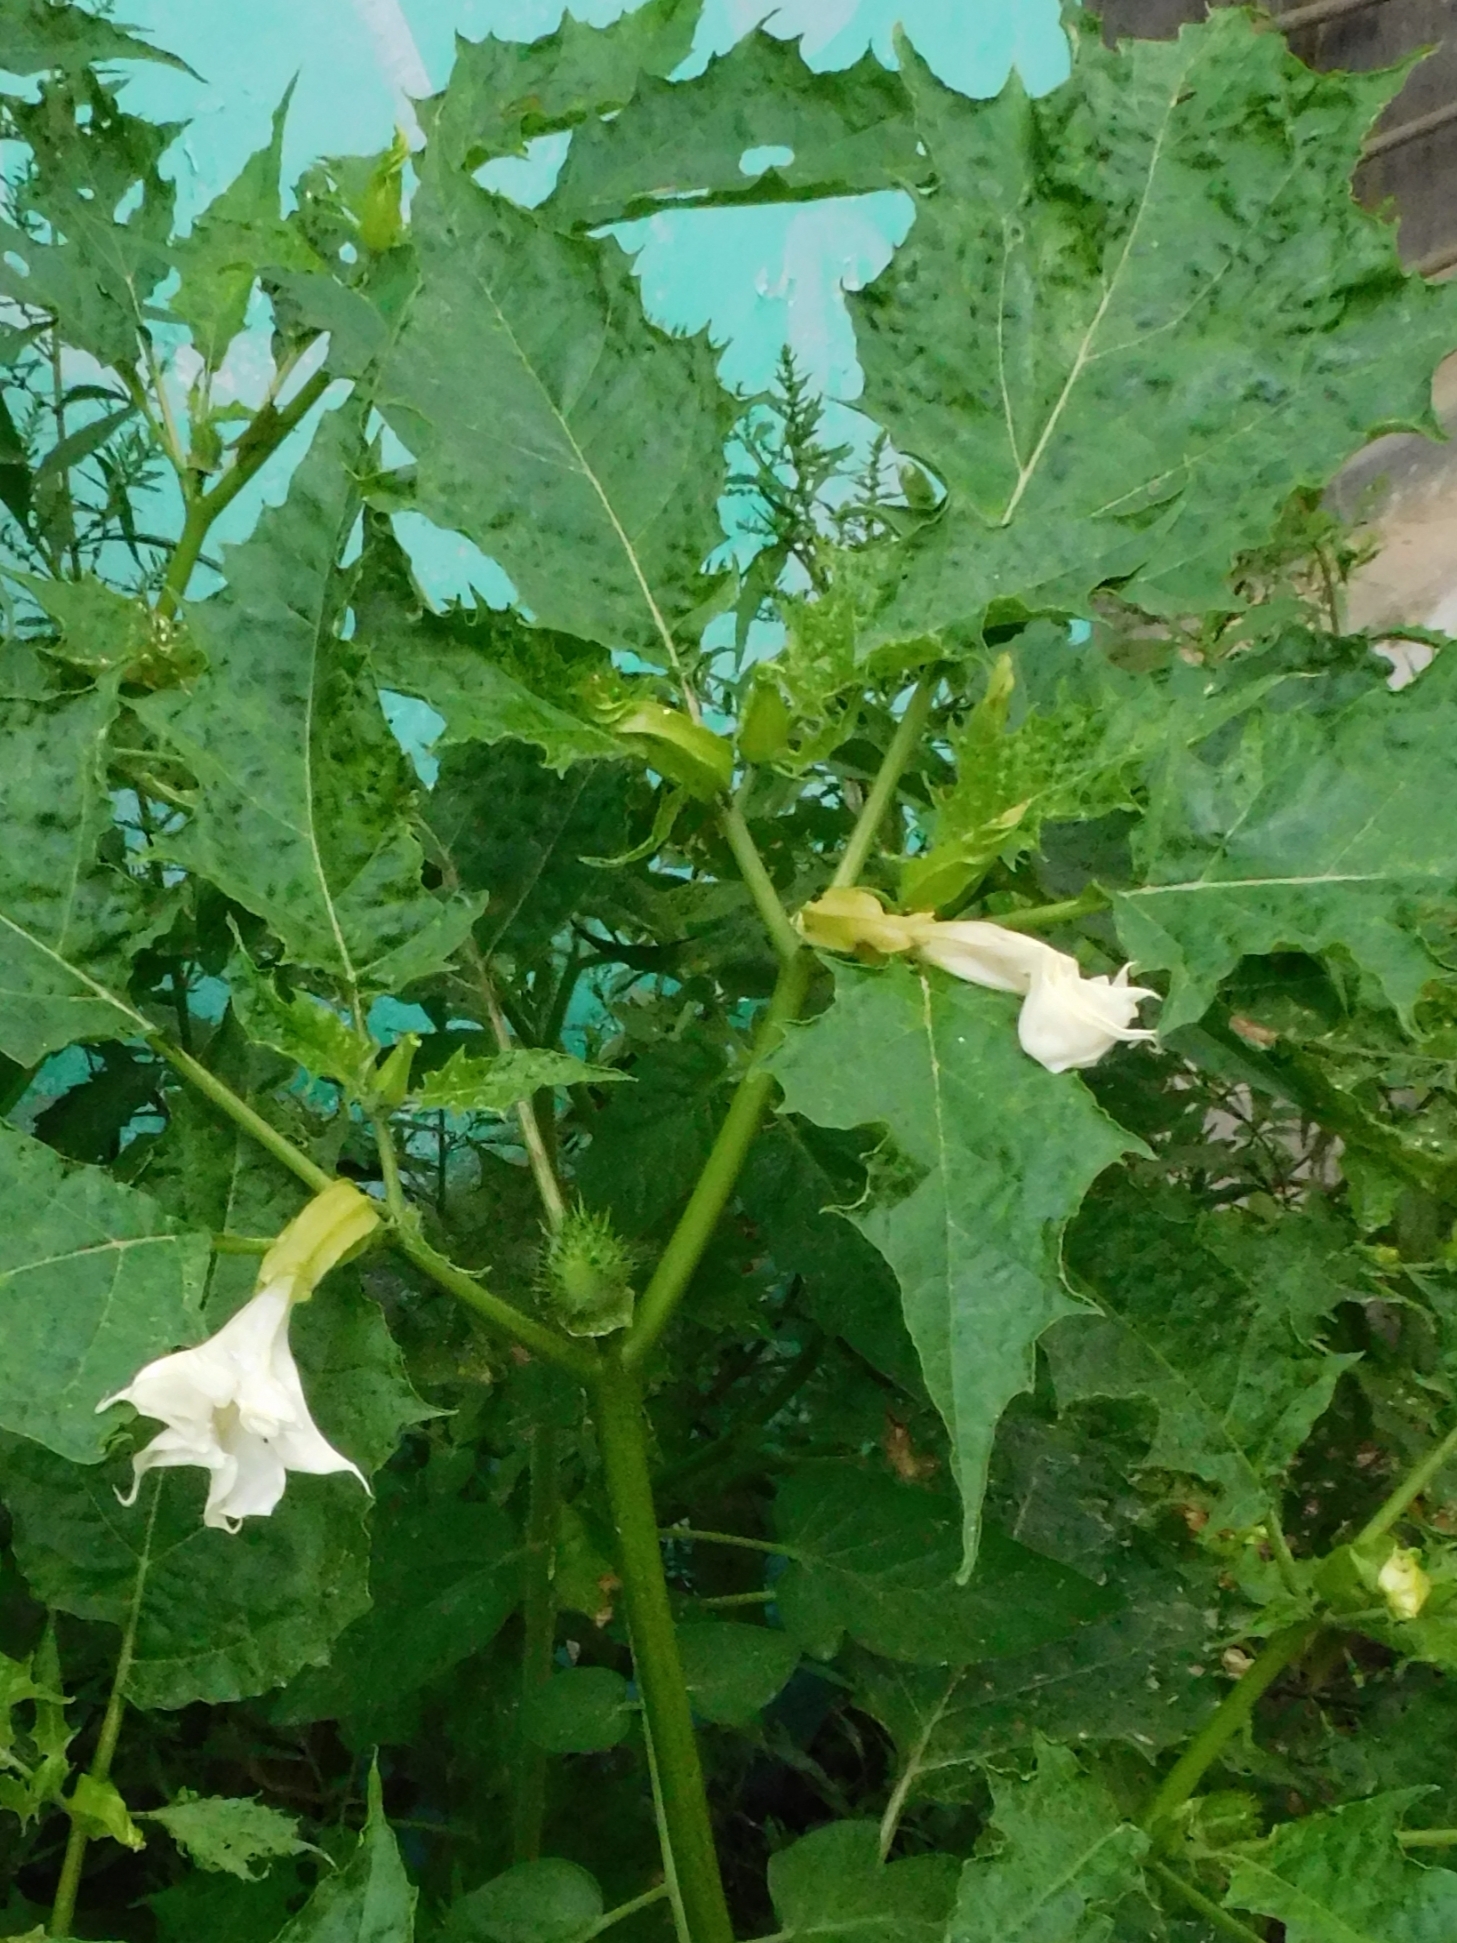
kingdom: Plantae
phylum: Tracheophyta
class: Magnoliopsida
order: Solanales
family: Solanaceae
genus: Datura
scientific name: Datura stramonium
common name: Thorn-apple
